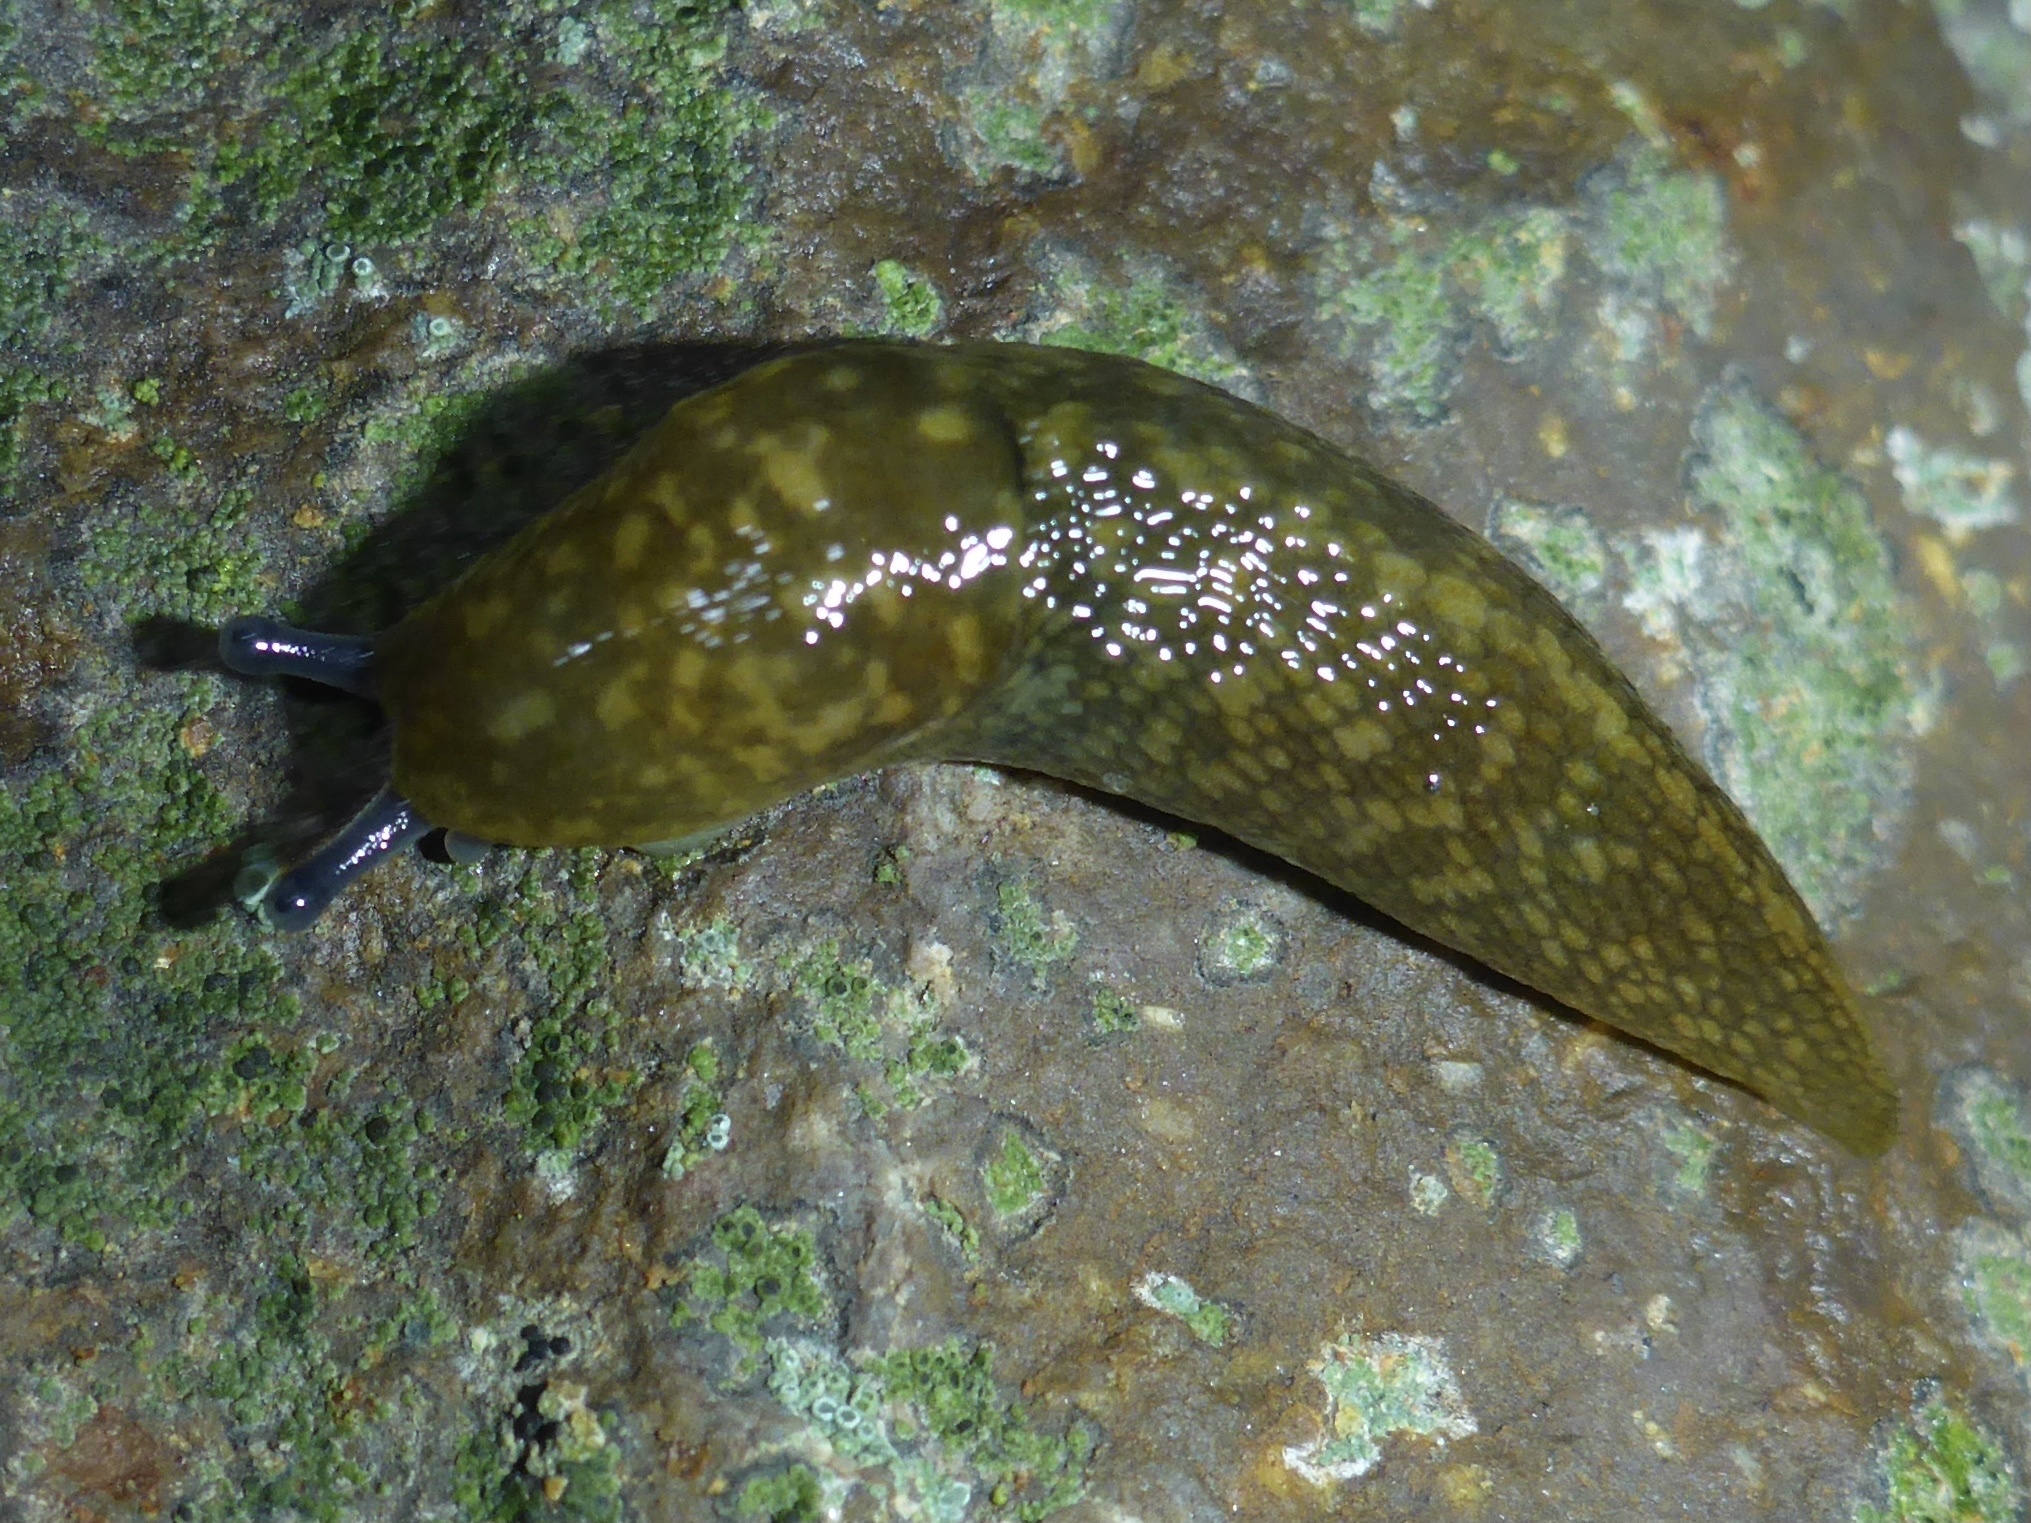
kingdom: Animalia
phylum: Mollusca
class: Gastropoda
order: Stylommatophora
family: Limacidae
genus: Limacus
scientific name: Limacus flavus
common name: Yellow gardenslug
